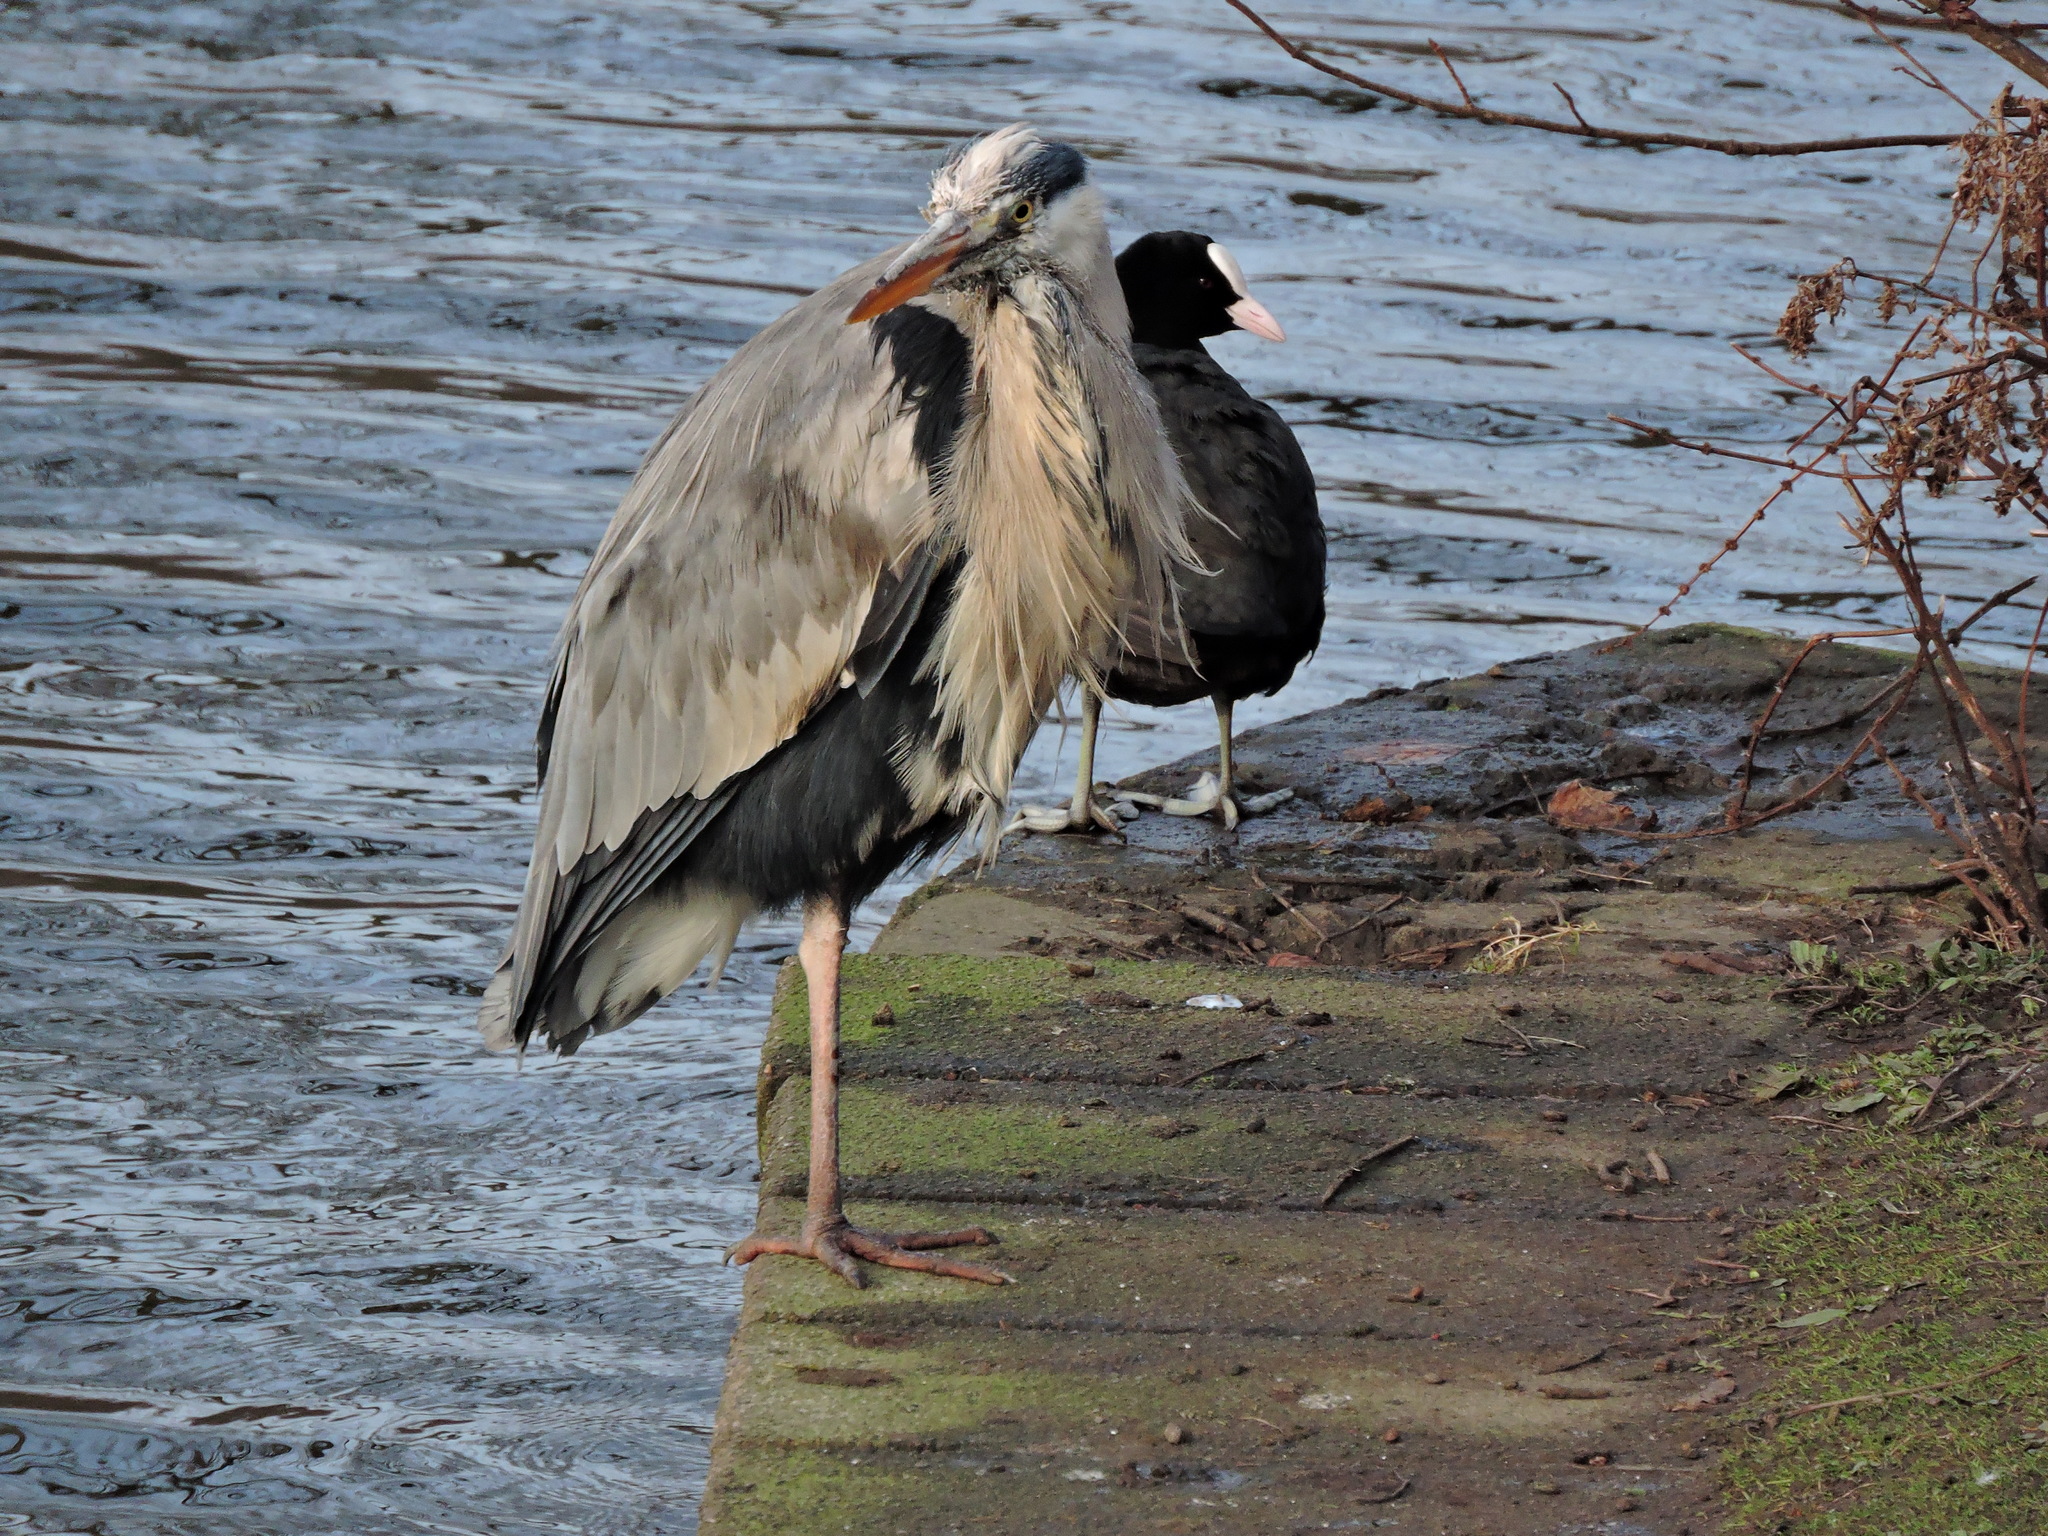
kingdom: Animalia
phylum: Chordata
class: Aves
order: Gruiformes
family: Rallidae
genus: Fulica
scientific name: Fulica atra
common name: Eurasian coot
